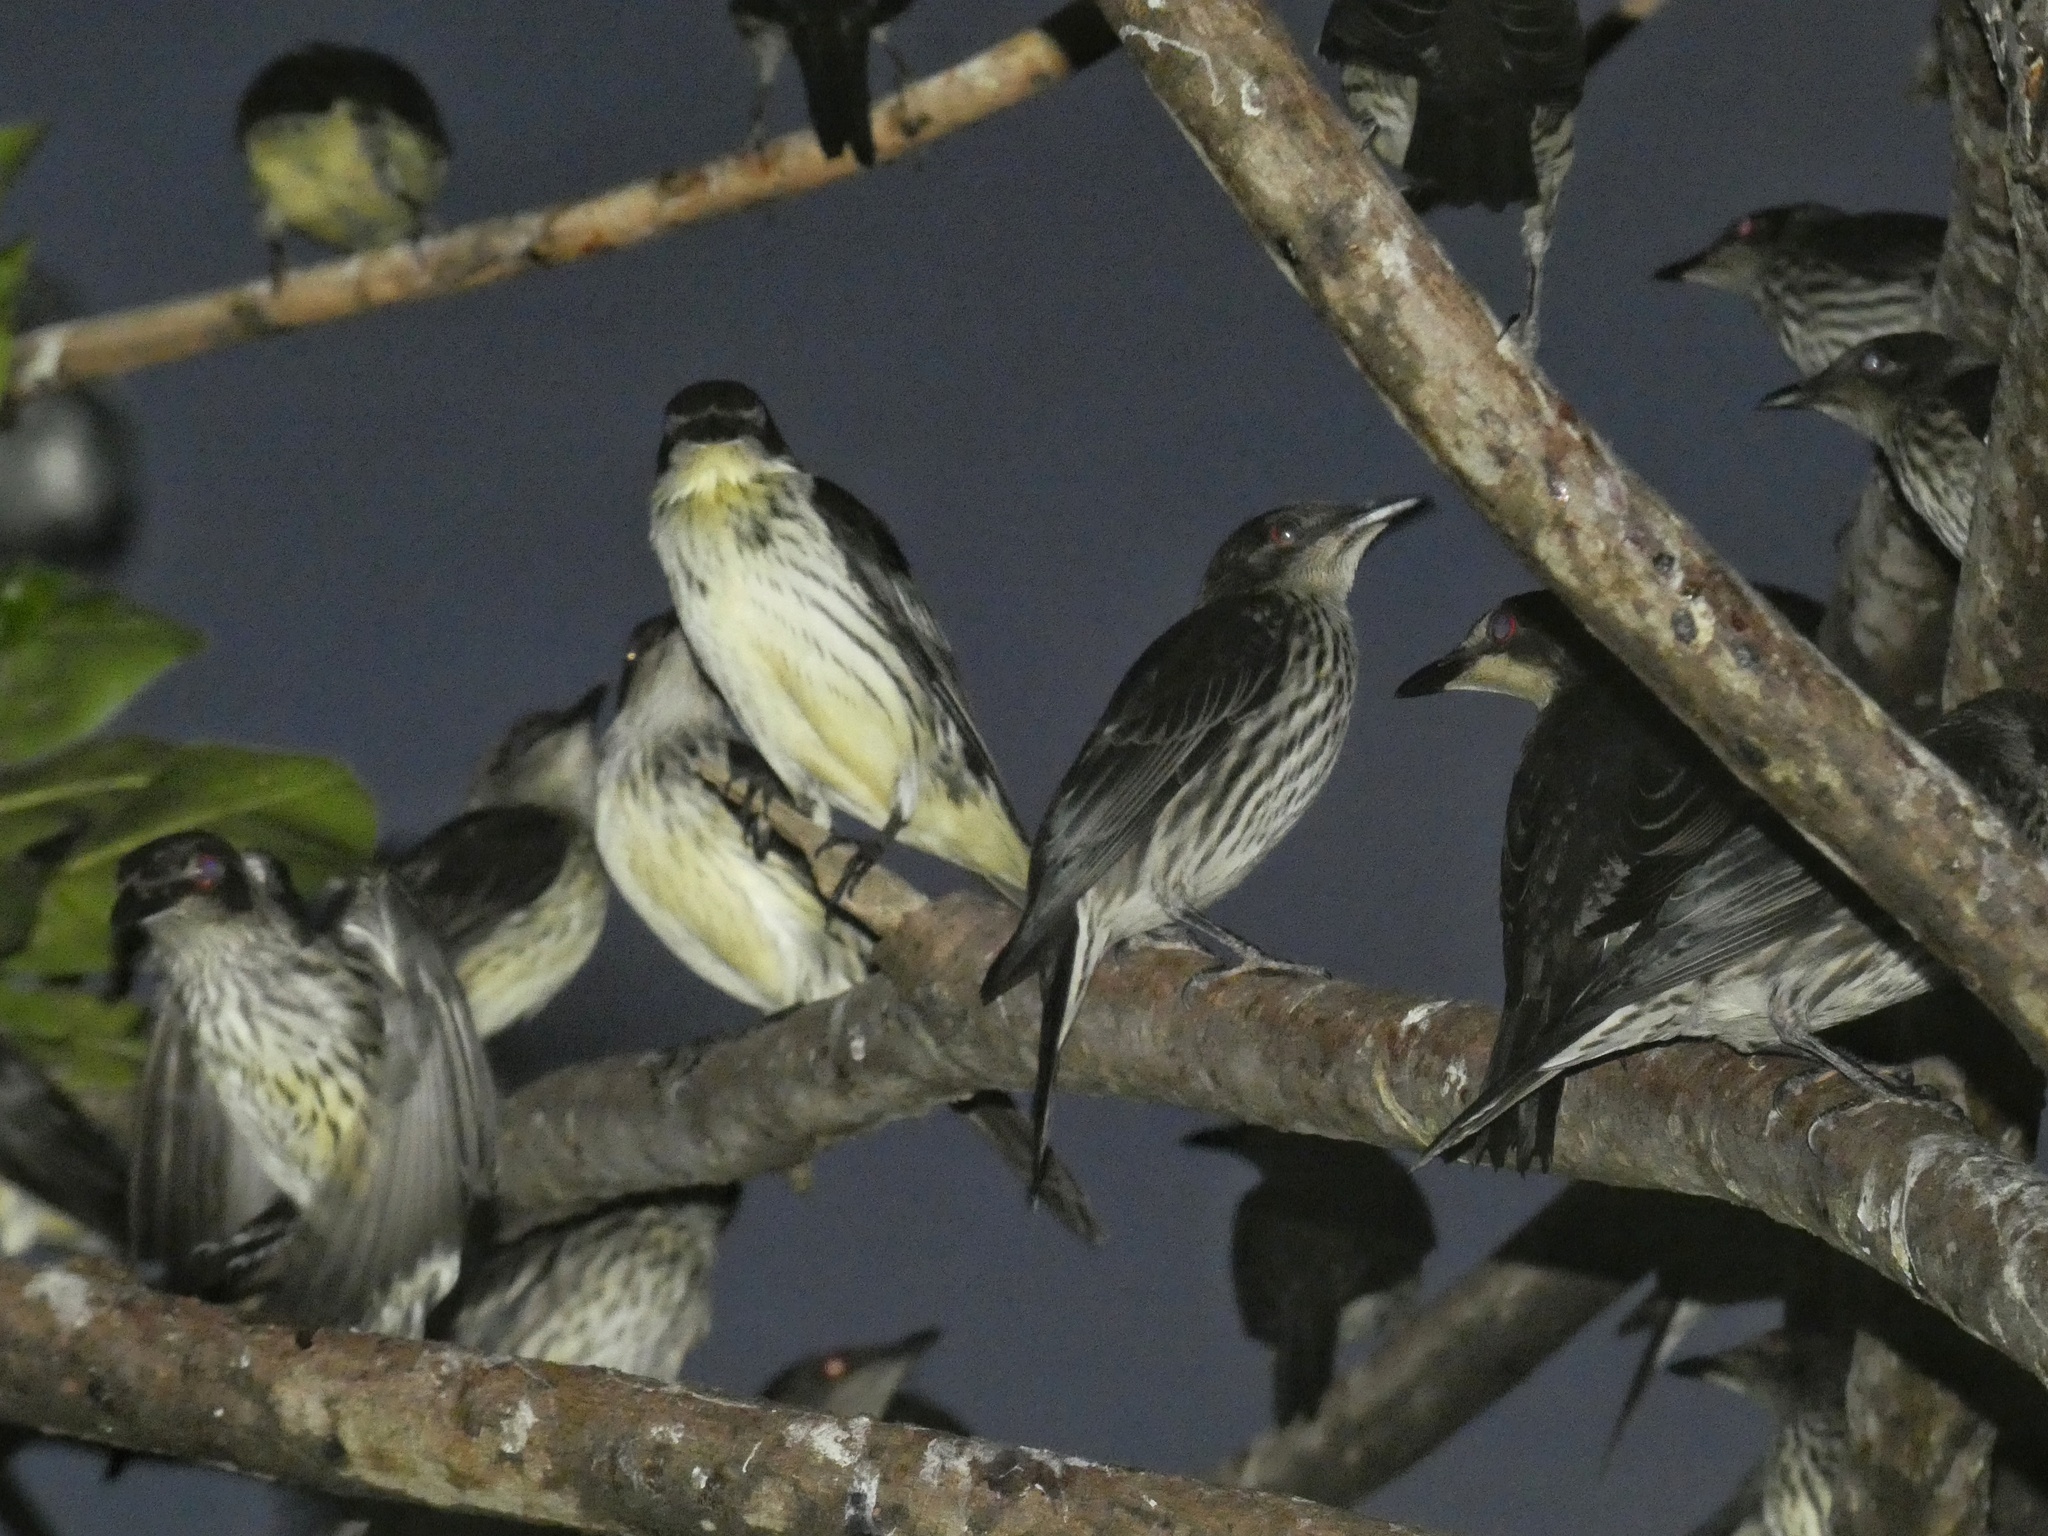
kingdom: Animalia
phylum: Chordata
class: Aves
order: Passeriformes
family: Sturnidae
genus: Aplonis
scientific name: Aplonis metallica
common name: Metallic starling
